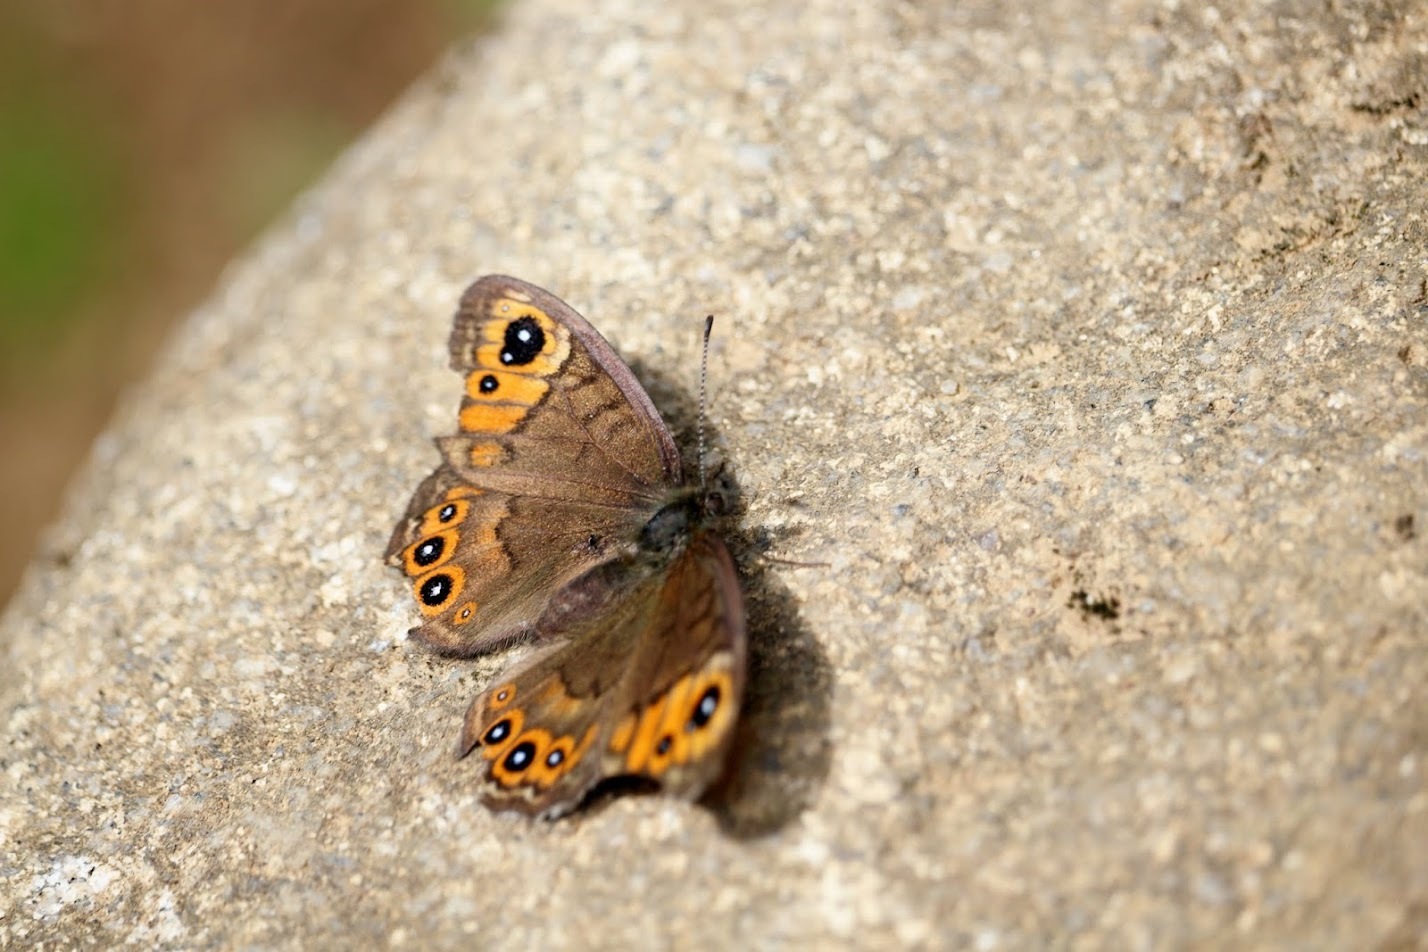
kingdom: Animalia
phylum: Arthropoda
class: Insecta
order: Lepidoptera
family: Nymphalidae
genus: Pararge
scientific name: Pararge petropolitana
